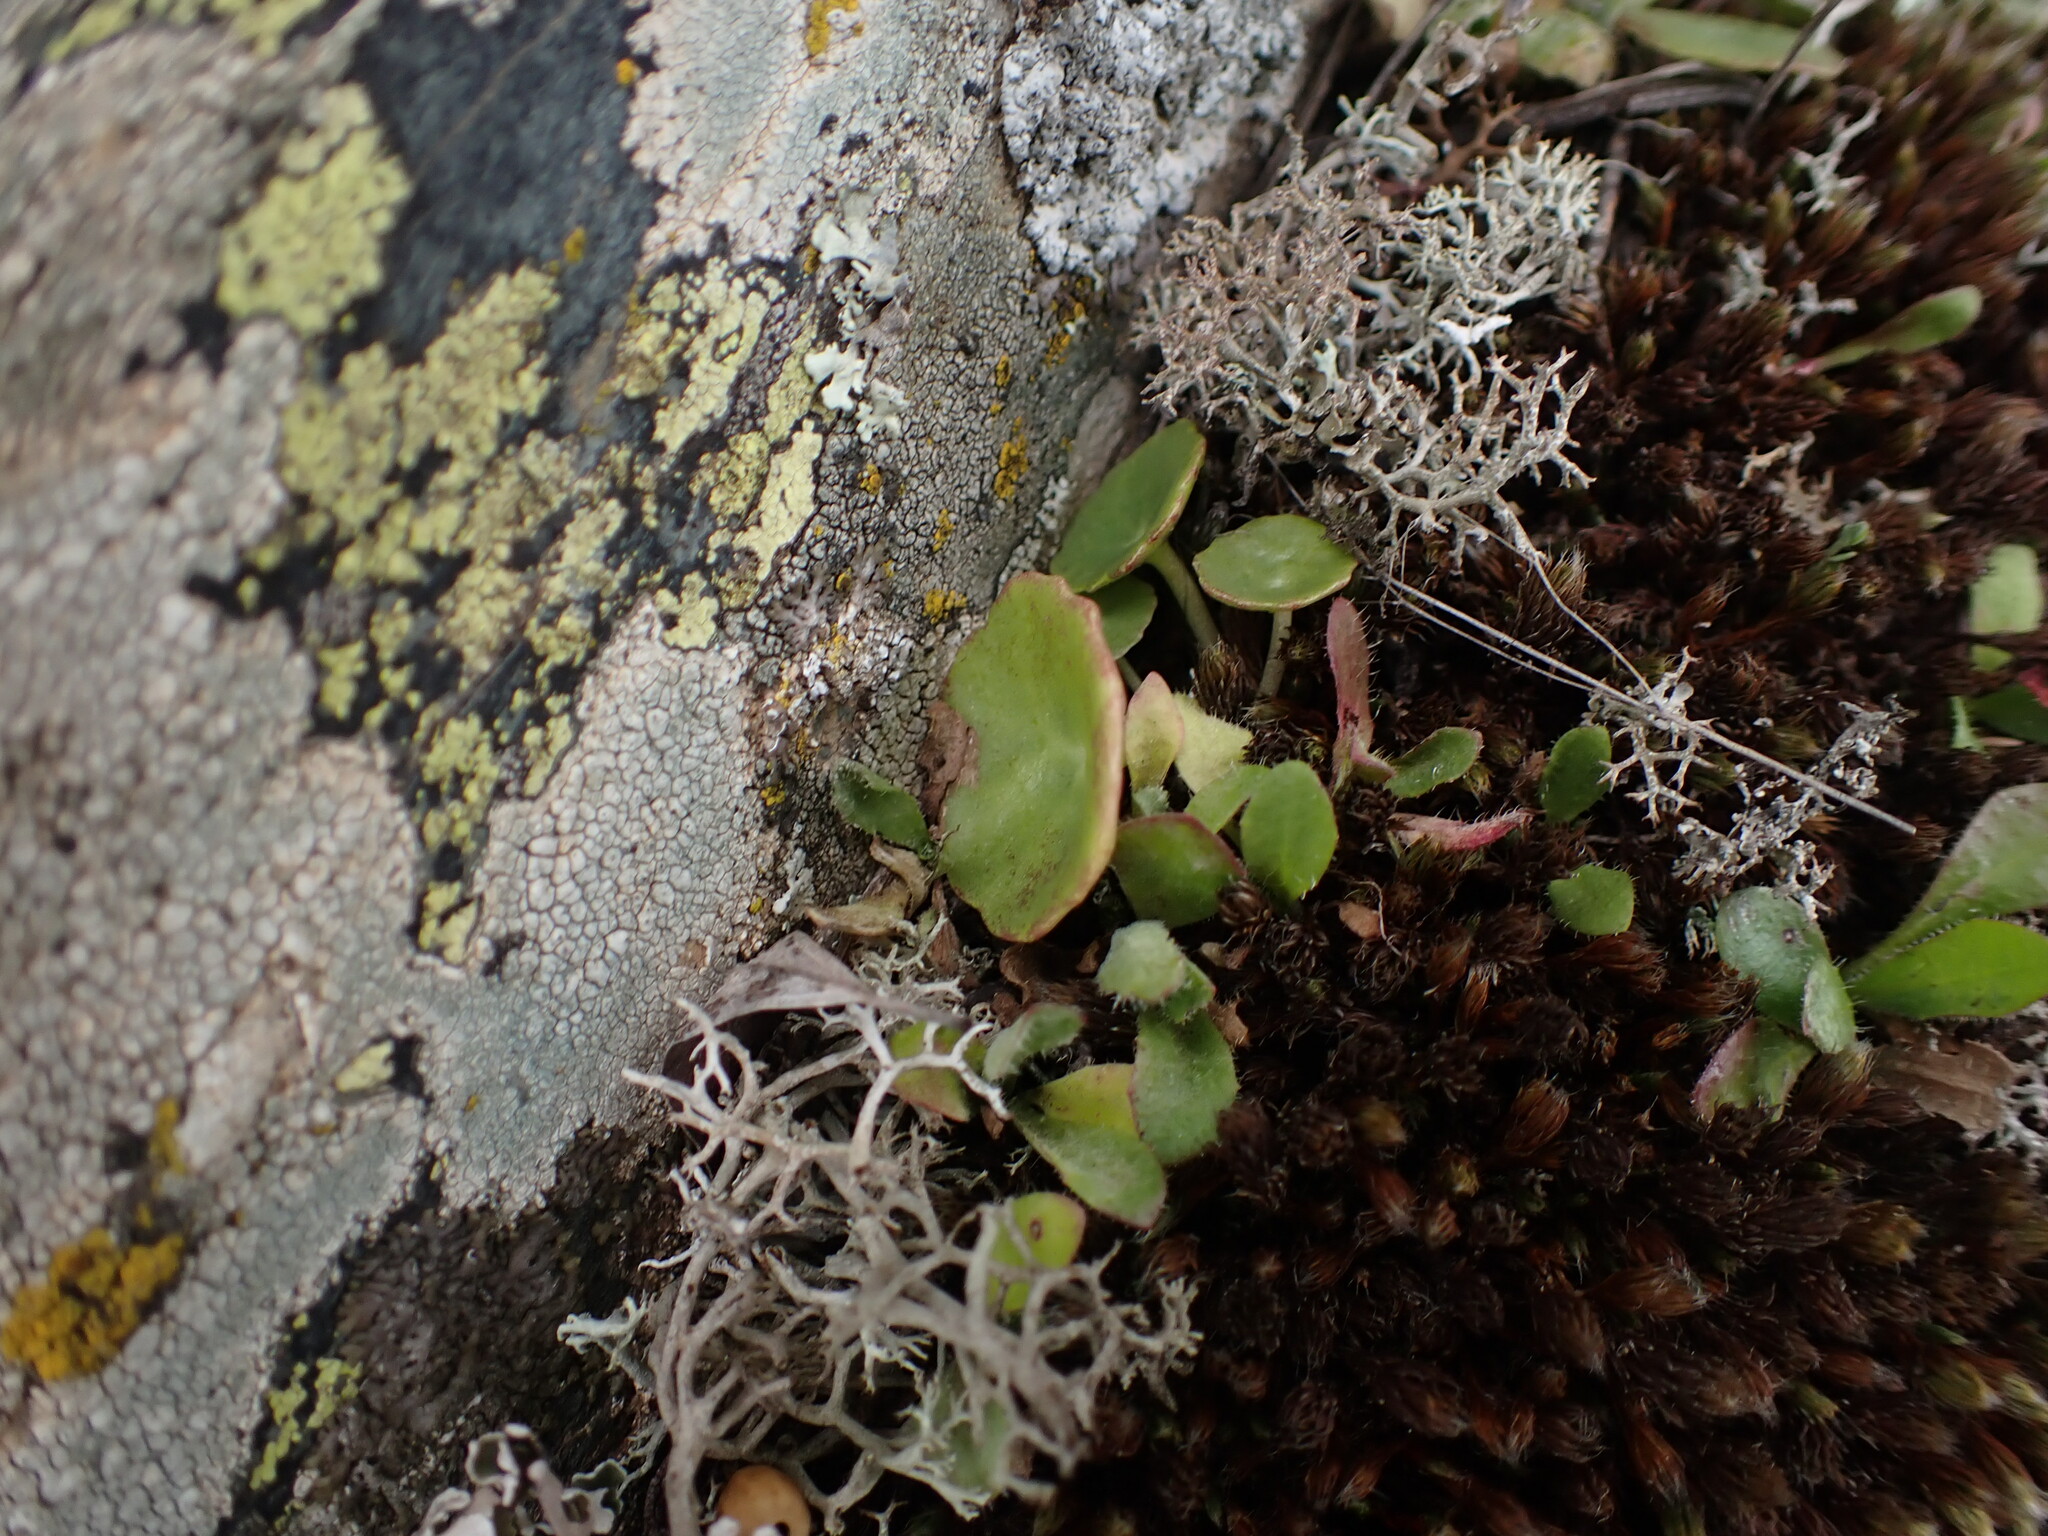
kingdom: Plantae
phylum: Tracheophyta
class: Magnoliopsida
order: Saxifragales
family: Crassulaceae
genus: Umbilicus
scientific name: Umbilicus rupestris
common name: Navelwort
